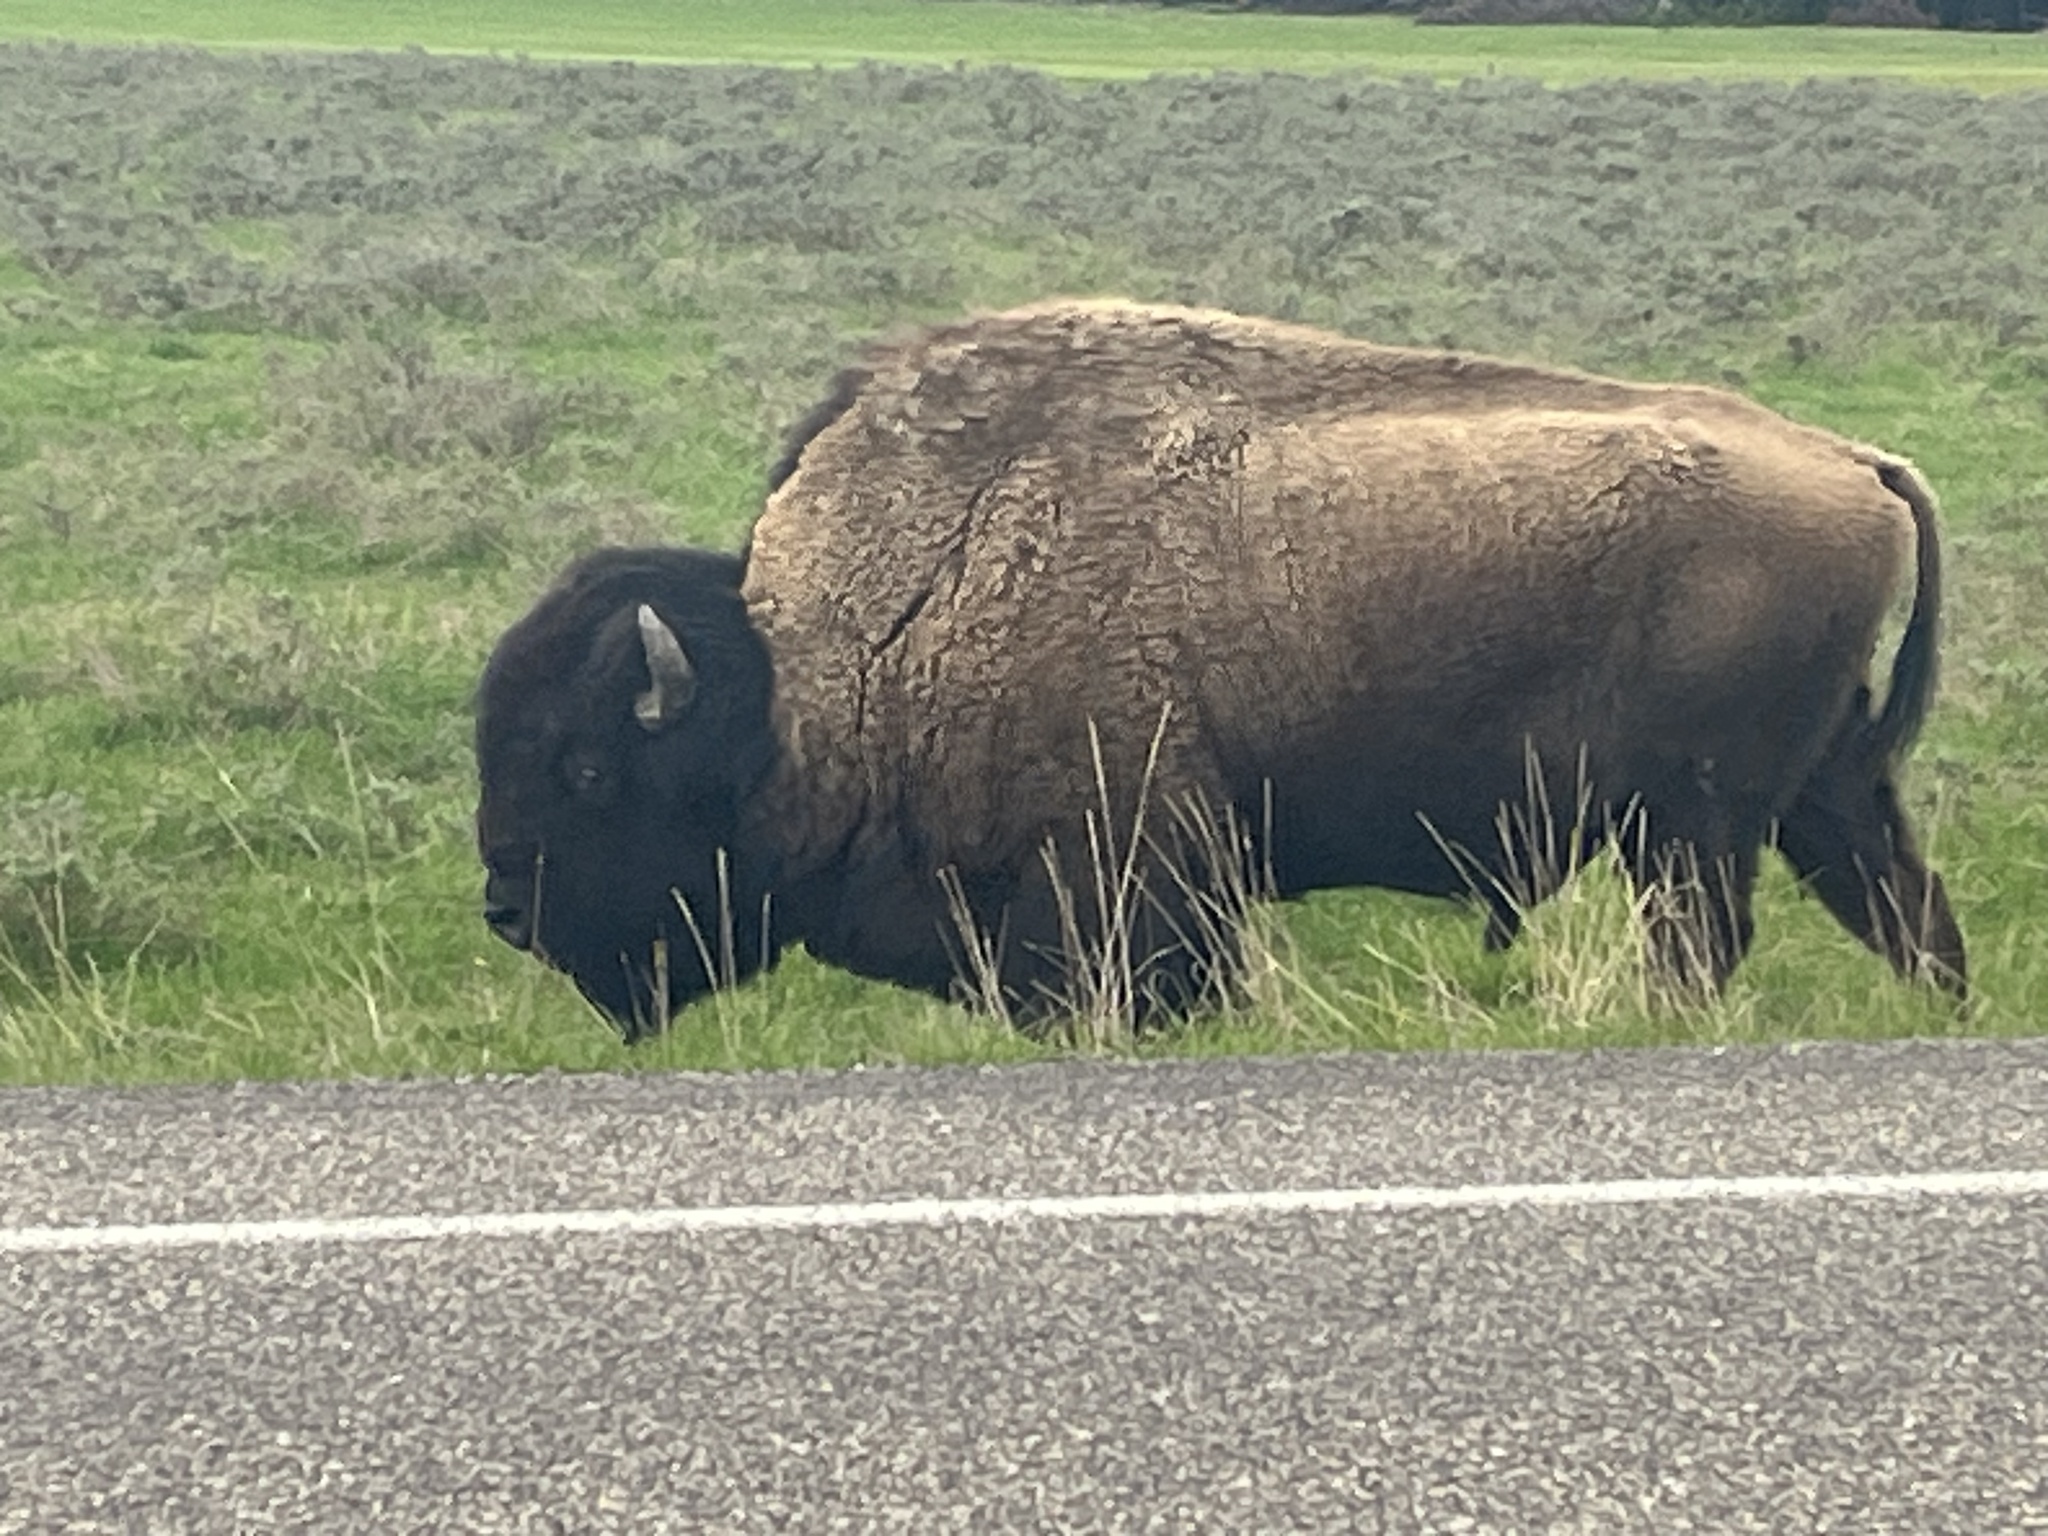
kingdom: Animalia
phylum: Chordata
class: Mammalia
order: Artiodactyla
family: Bovidae
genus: Bison
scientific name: Bison bison
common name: American bison
